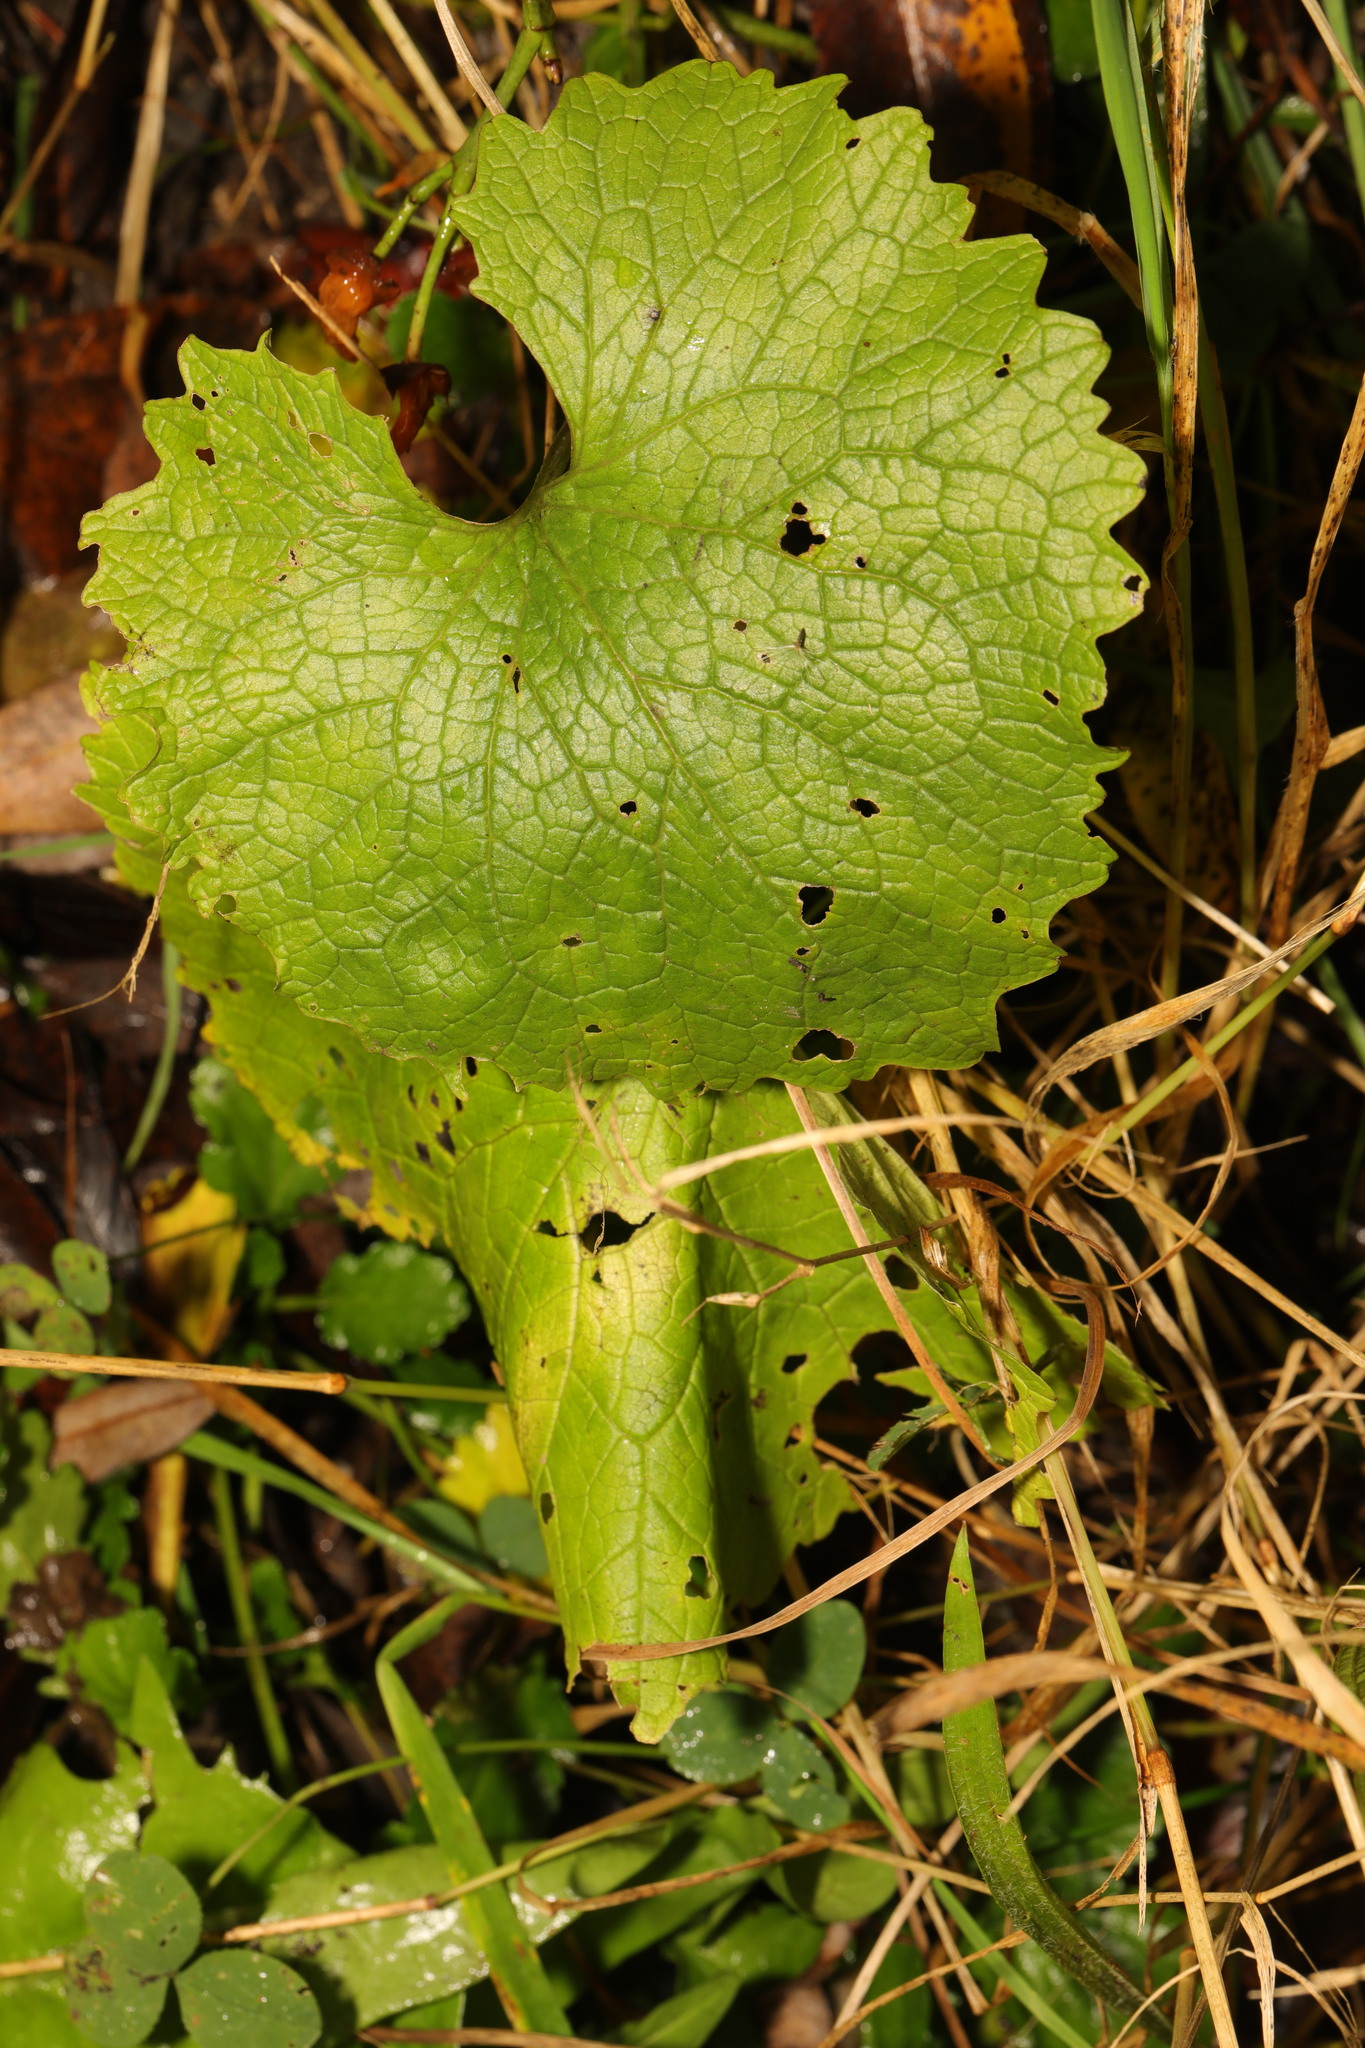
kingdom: Plantae
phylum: Tracheophyta
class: Magnoliopsida
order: Brassicales
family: Brassicaceae
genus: Alliaria
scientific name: Alliaria petiolata
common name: Garlic mustard
